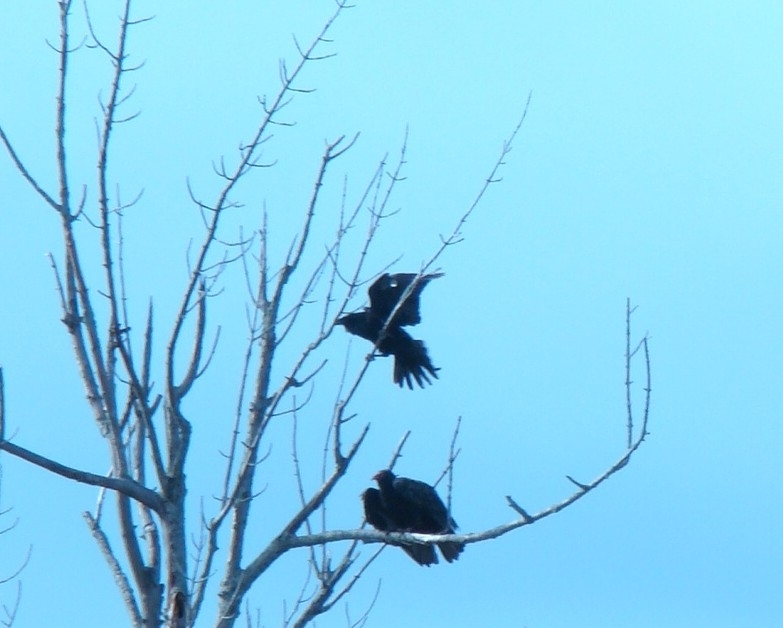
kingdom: Animalia
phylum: Chordata
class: Aves
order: Passeriformes
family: Corvidae
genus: Corvus
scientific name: Corvus corax
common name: Common raven
